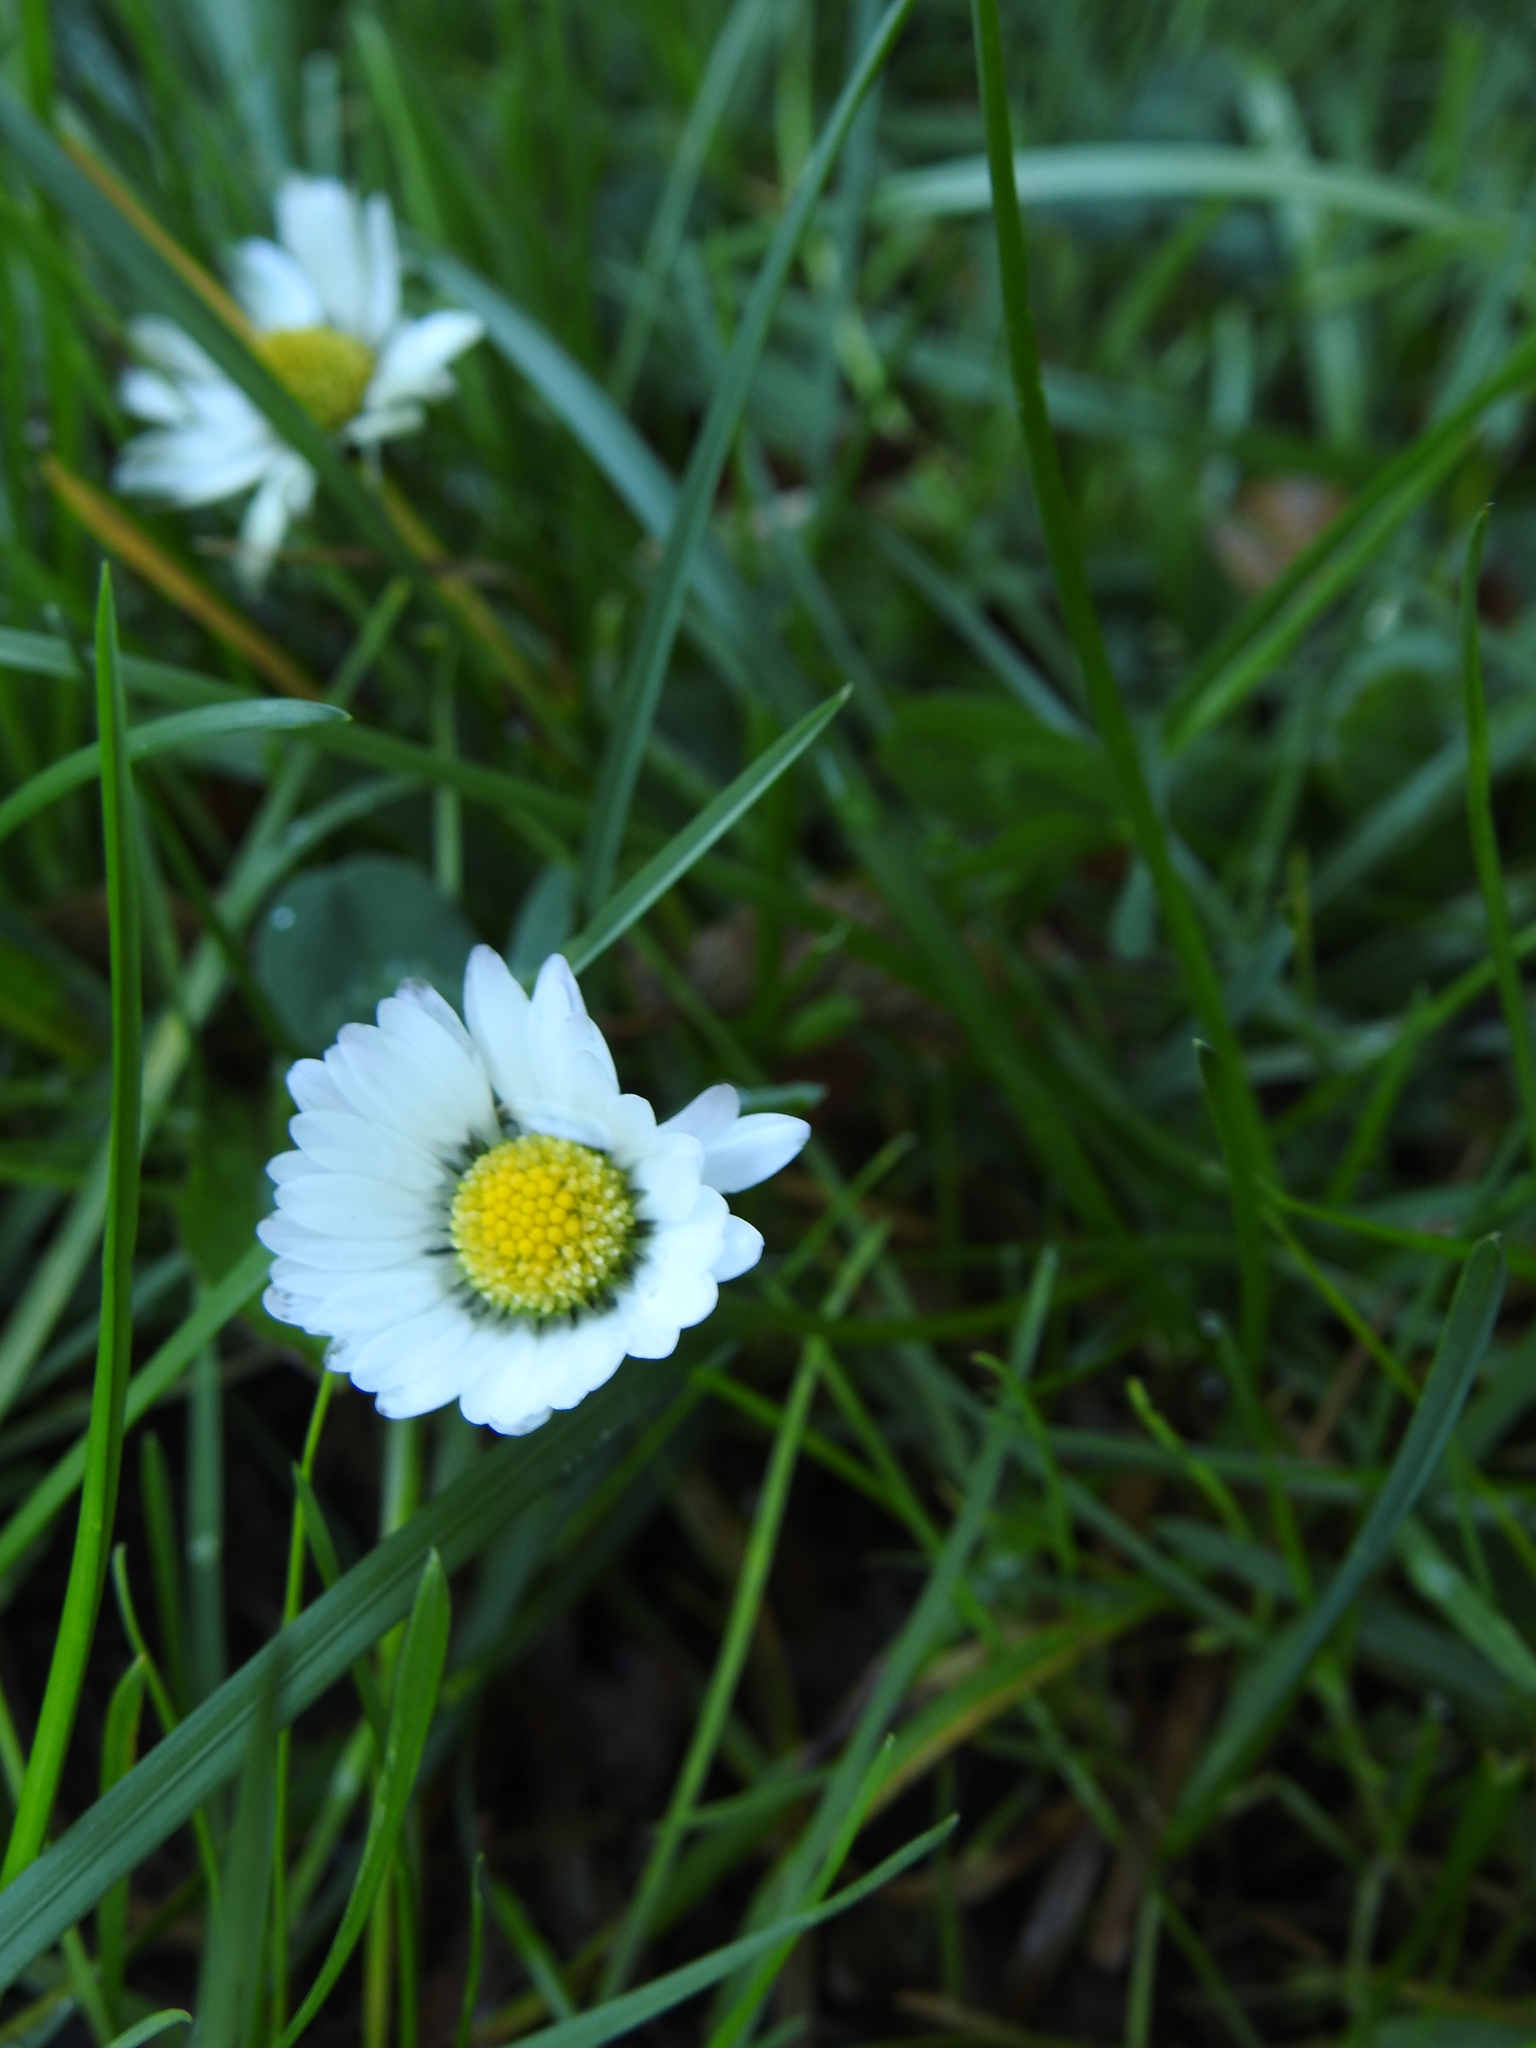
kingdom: Plantae
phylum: Tracheophyta
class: Magnoliopsida
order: Asterales
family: Asteraceae
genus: Bellis
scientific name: Bellis perennis
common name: Lawndaisy
